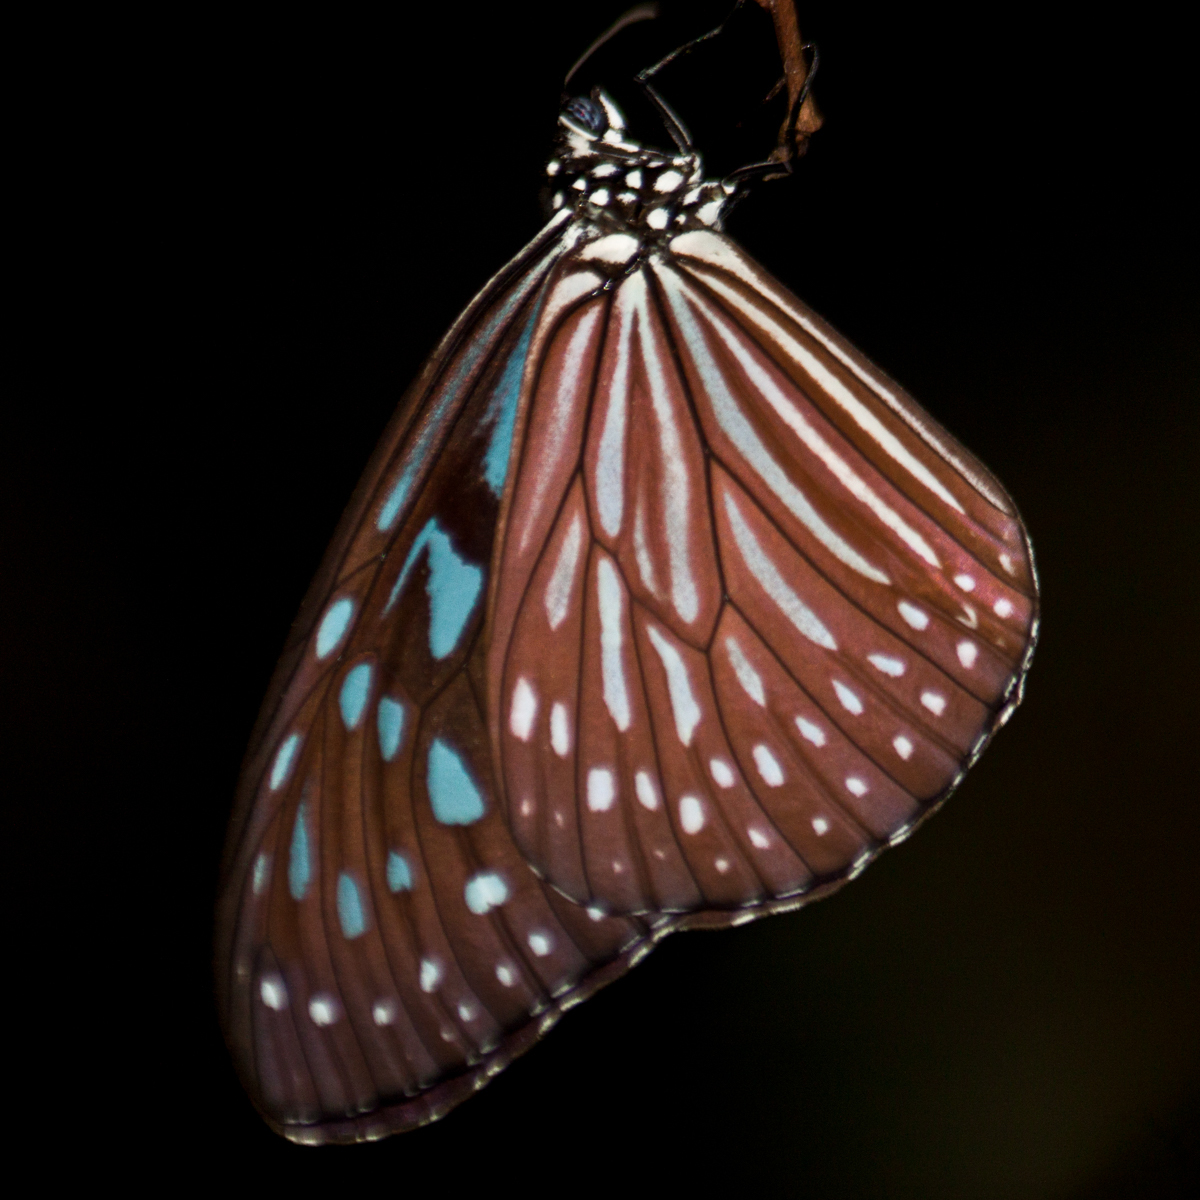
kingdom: Animalia
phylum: Arthropoda
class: Insecta
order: Lepidoptera
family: Nymphalidae
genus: Ideopsis
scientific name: Ideopsis vulgaris
